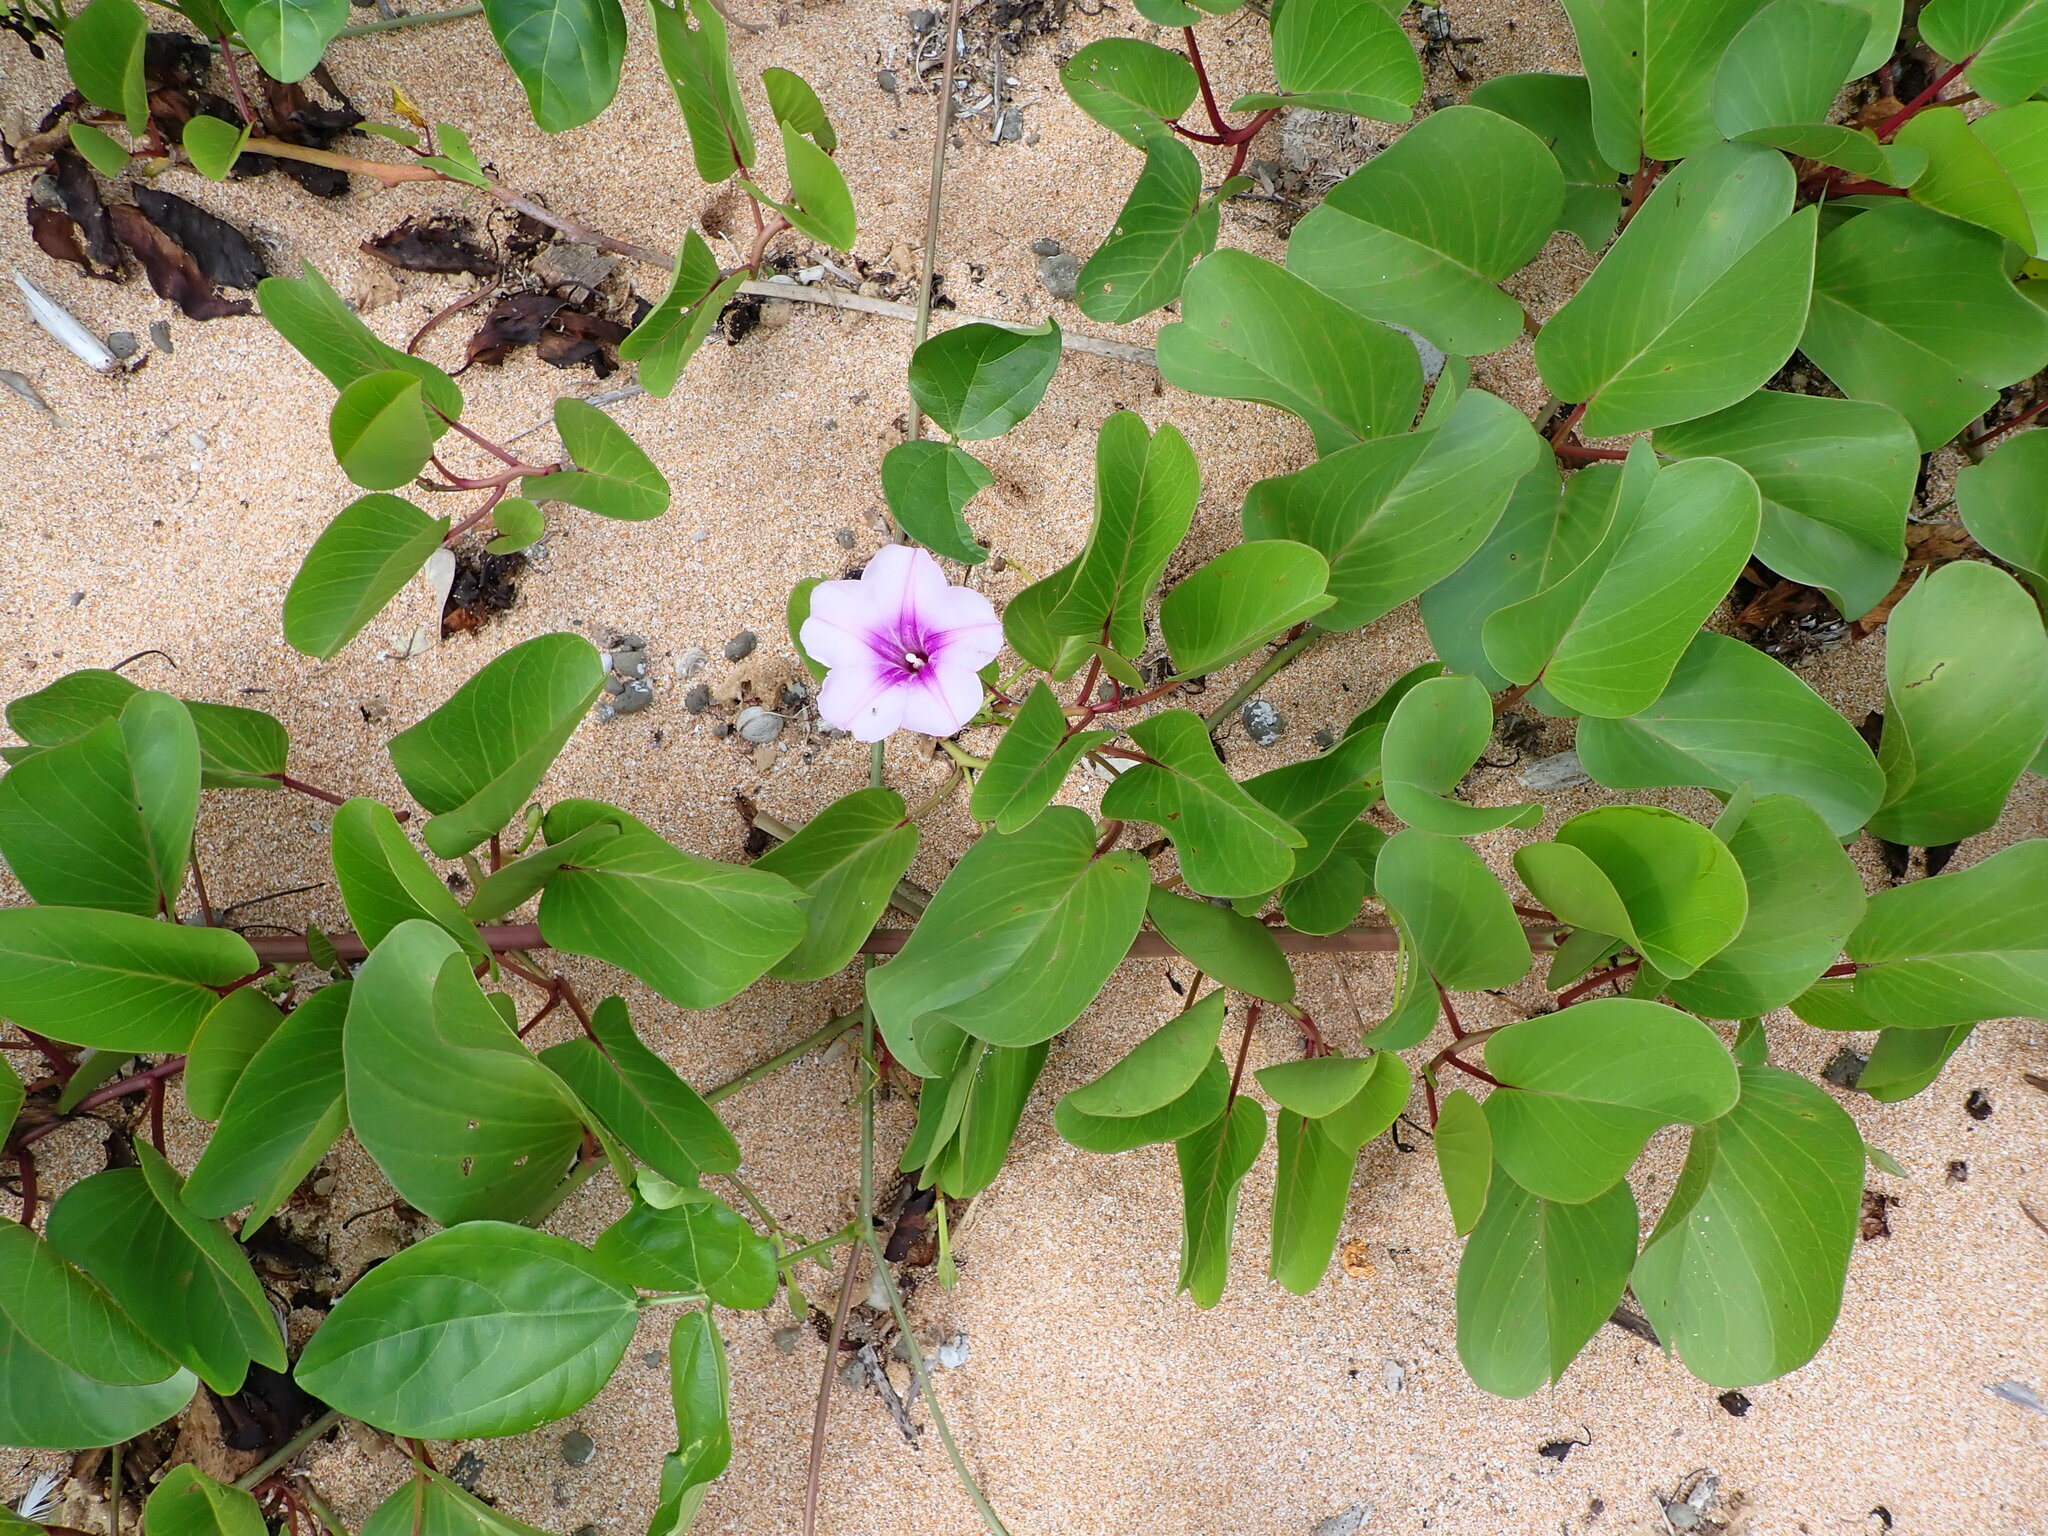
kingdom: Plantae
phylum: Tracheophyta
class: Magnoliopsida
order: Solanales
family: Convolvulaceae
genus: Ipomoea
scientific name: Ipomoea pes-caprae
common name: Beach morning glory
